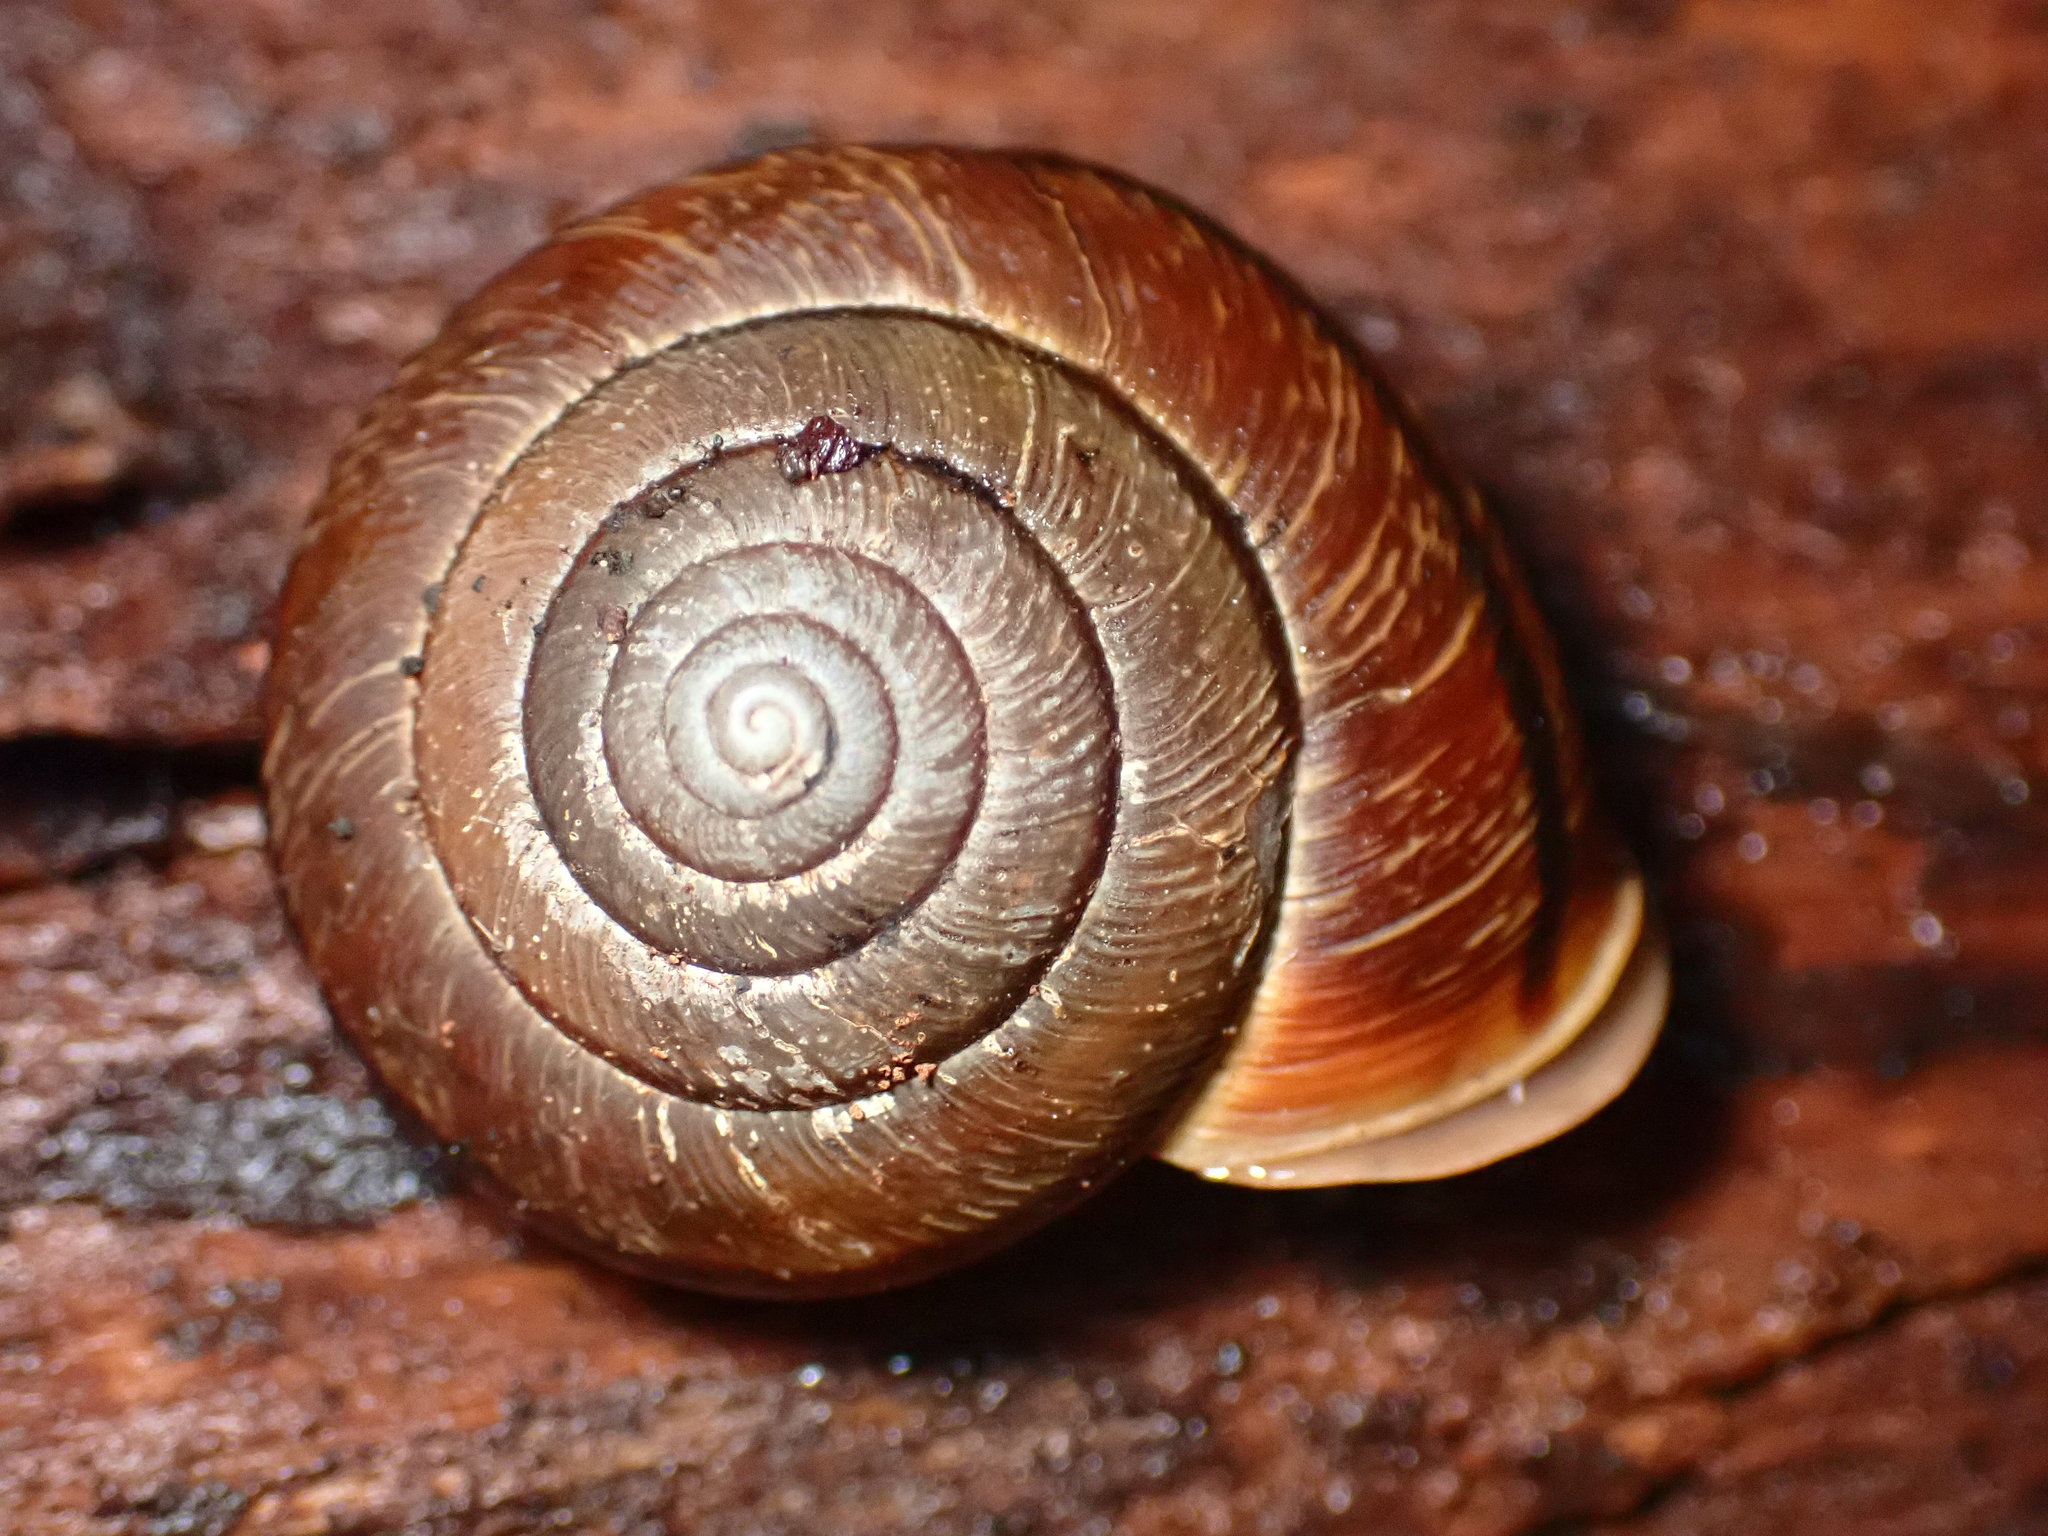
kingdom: Animalia
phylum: Mollusca
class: Gastropoda
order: Stylommatophora
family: Xanthonychidae
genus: Helminthoglypta
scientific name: Helminthoglypta arrosa
